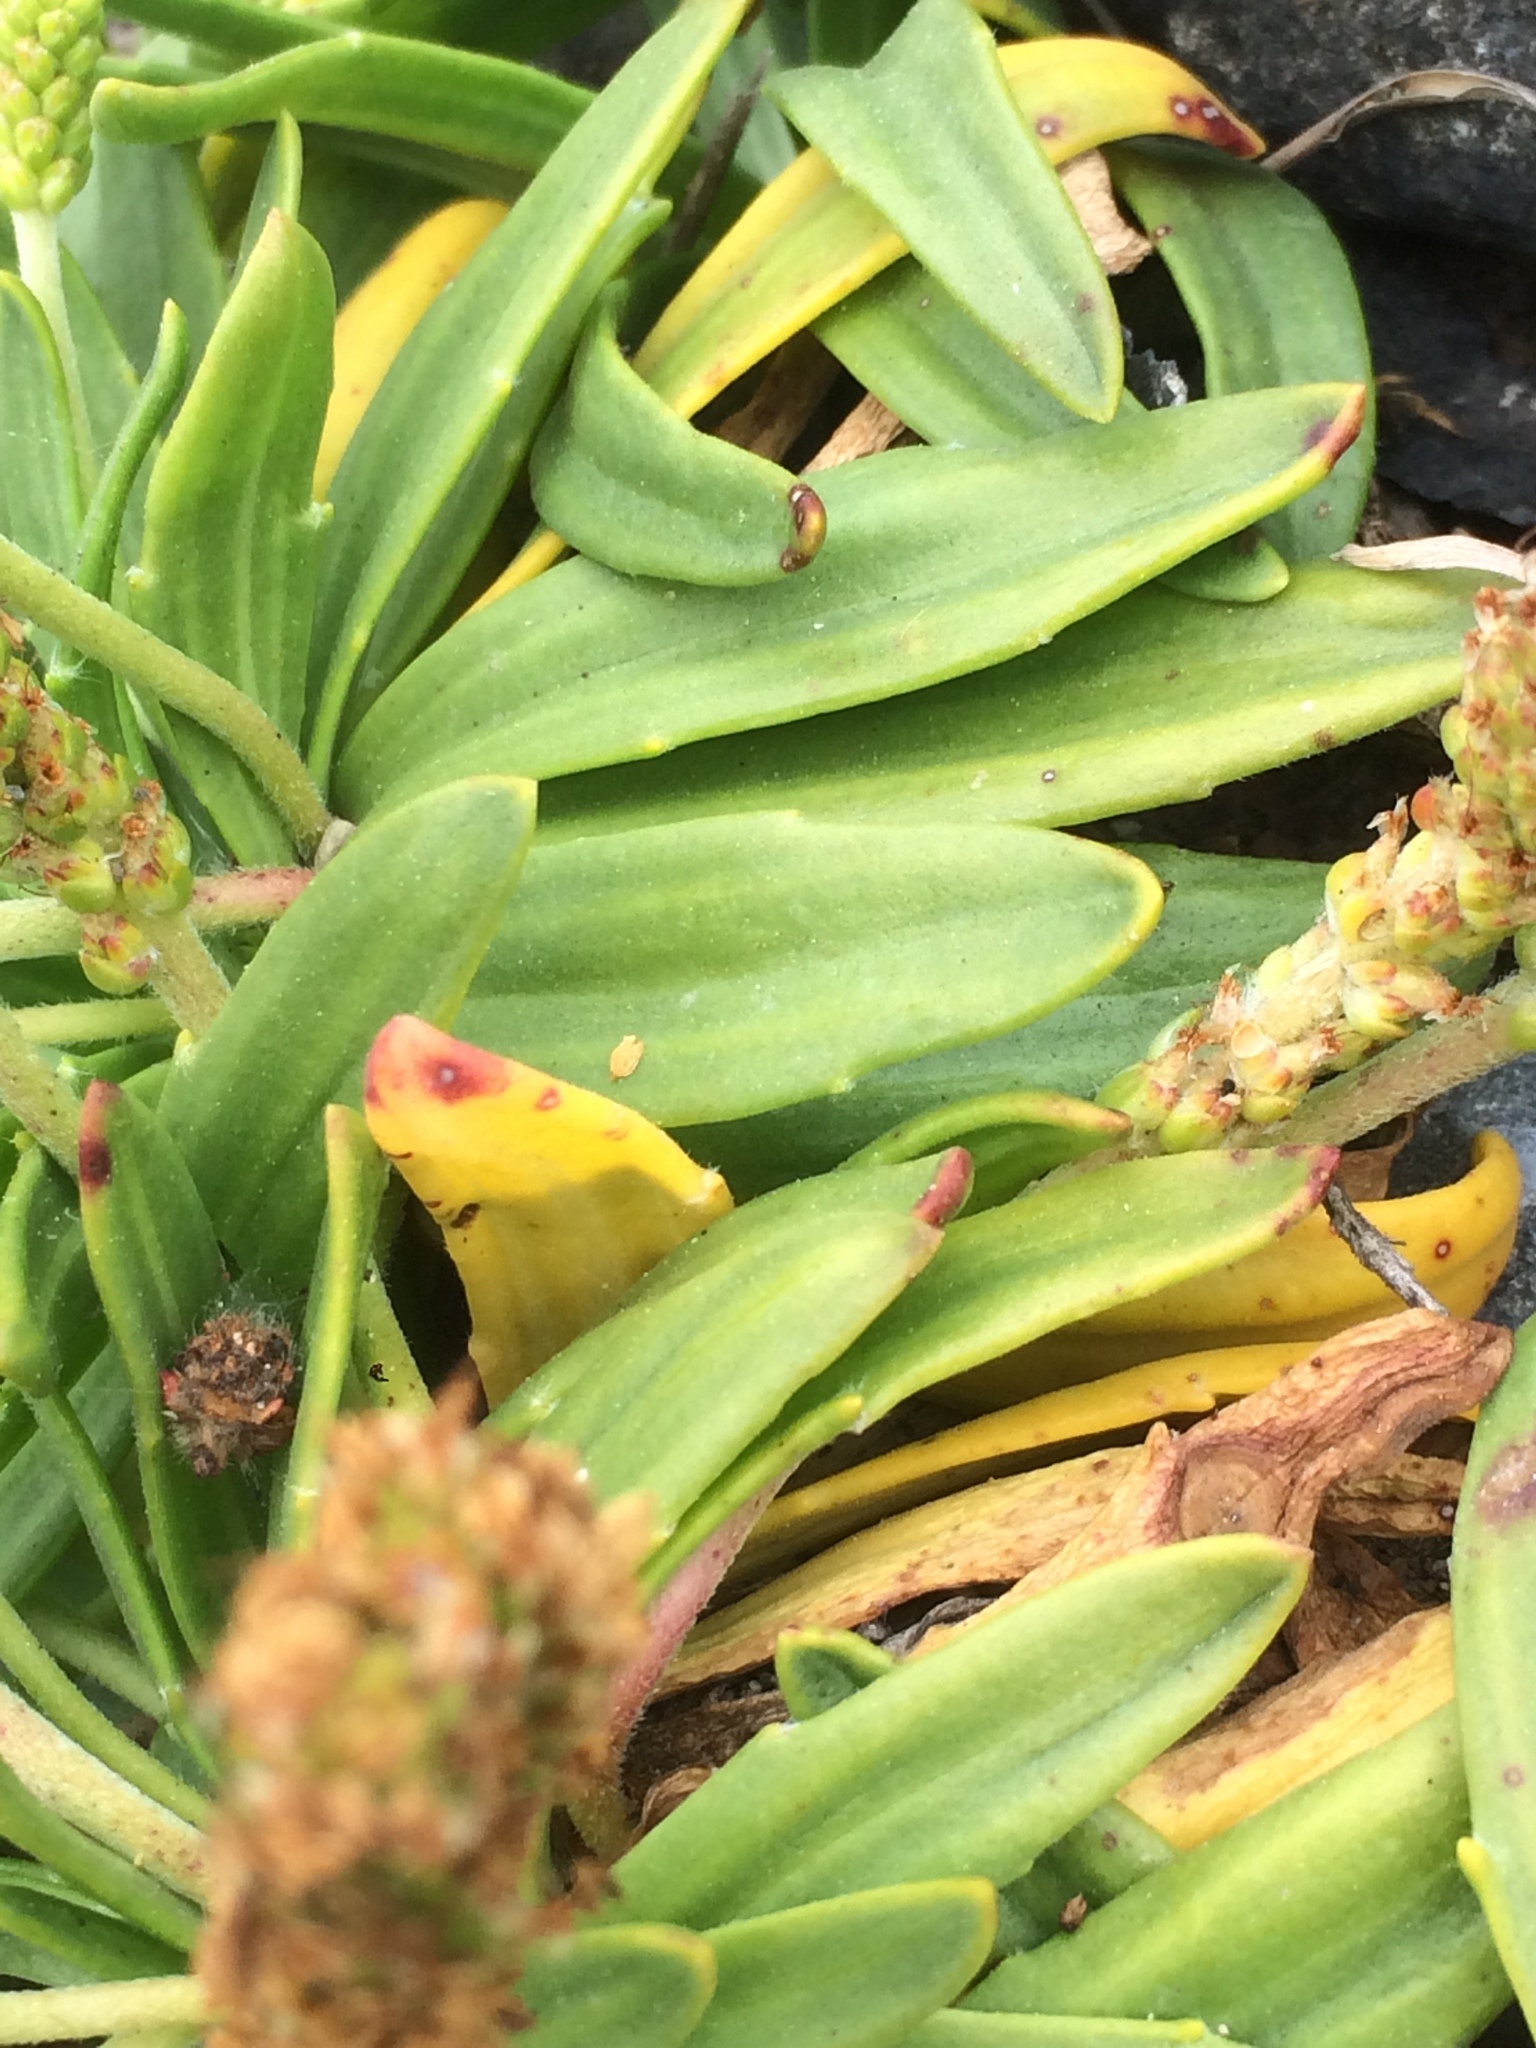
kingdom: Plantae
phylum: Tracheophyta
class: Magnoliopsida
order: Lamiales
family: Plantaginaceae
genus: Plantago
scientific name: Plantago maritima
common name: Sea plantain
